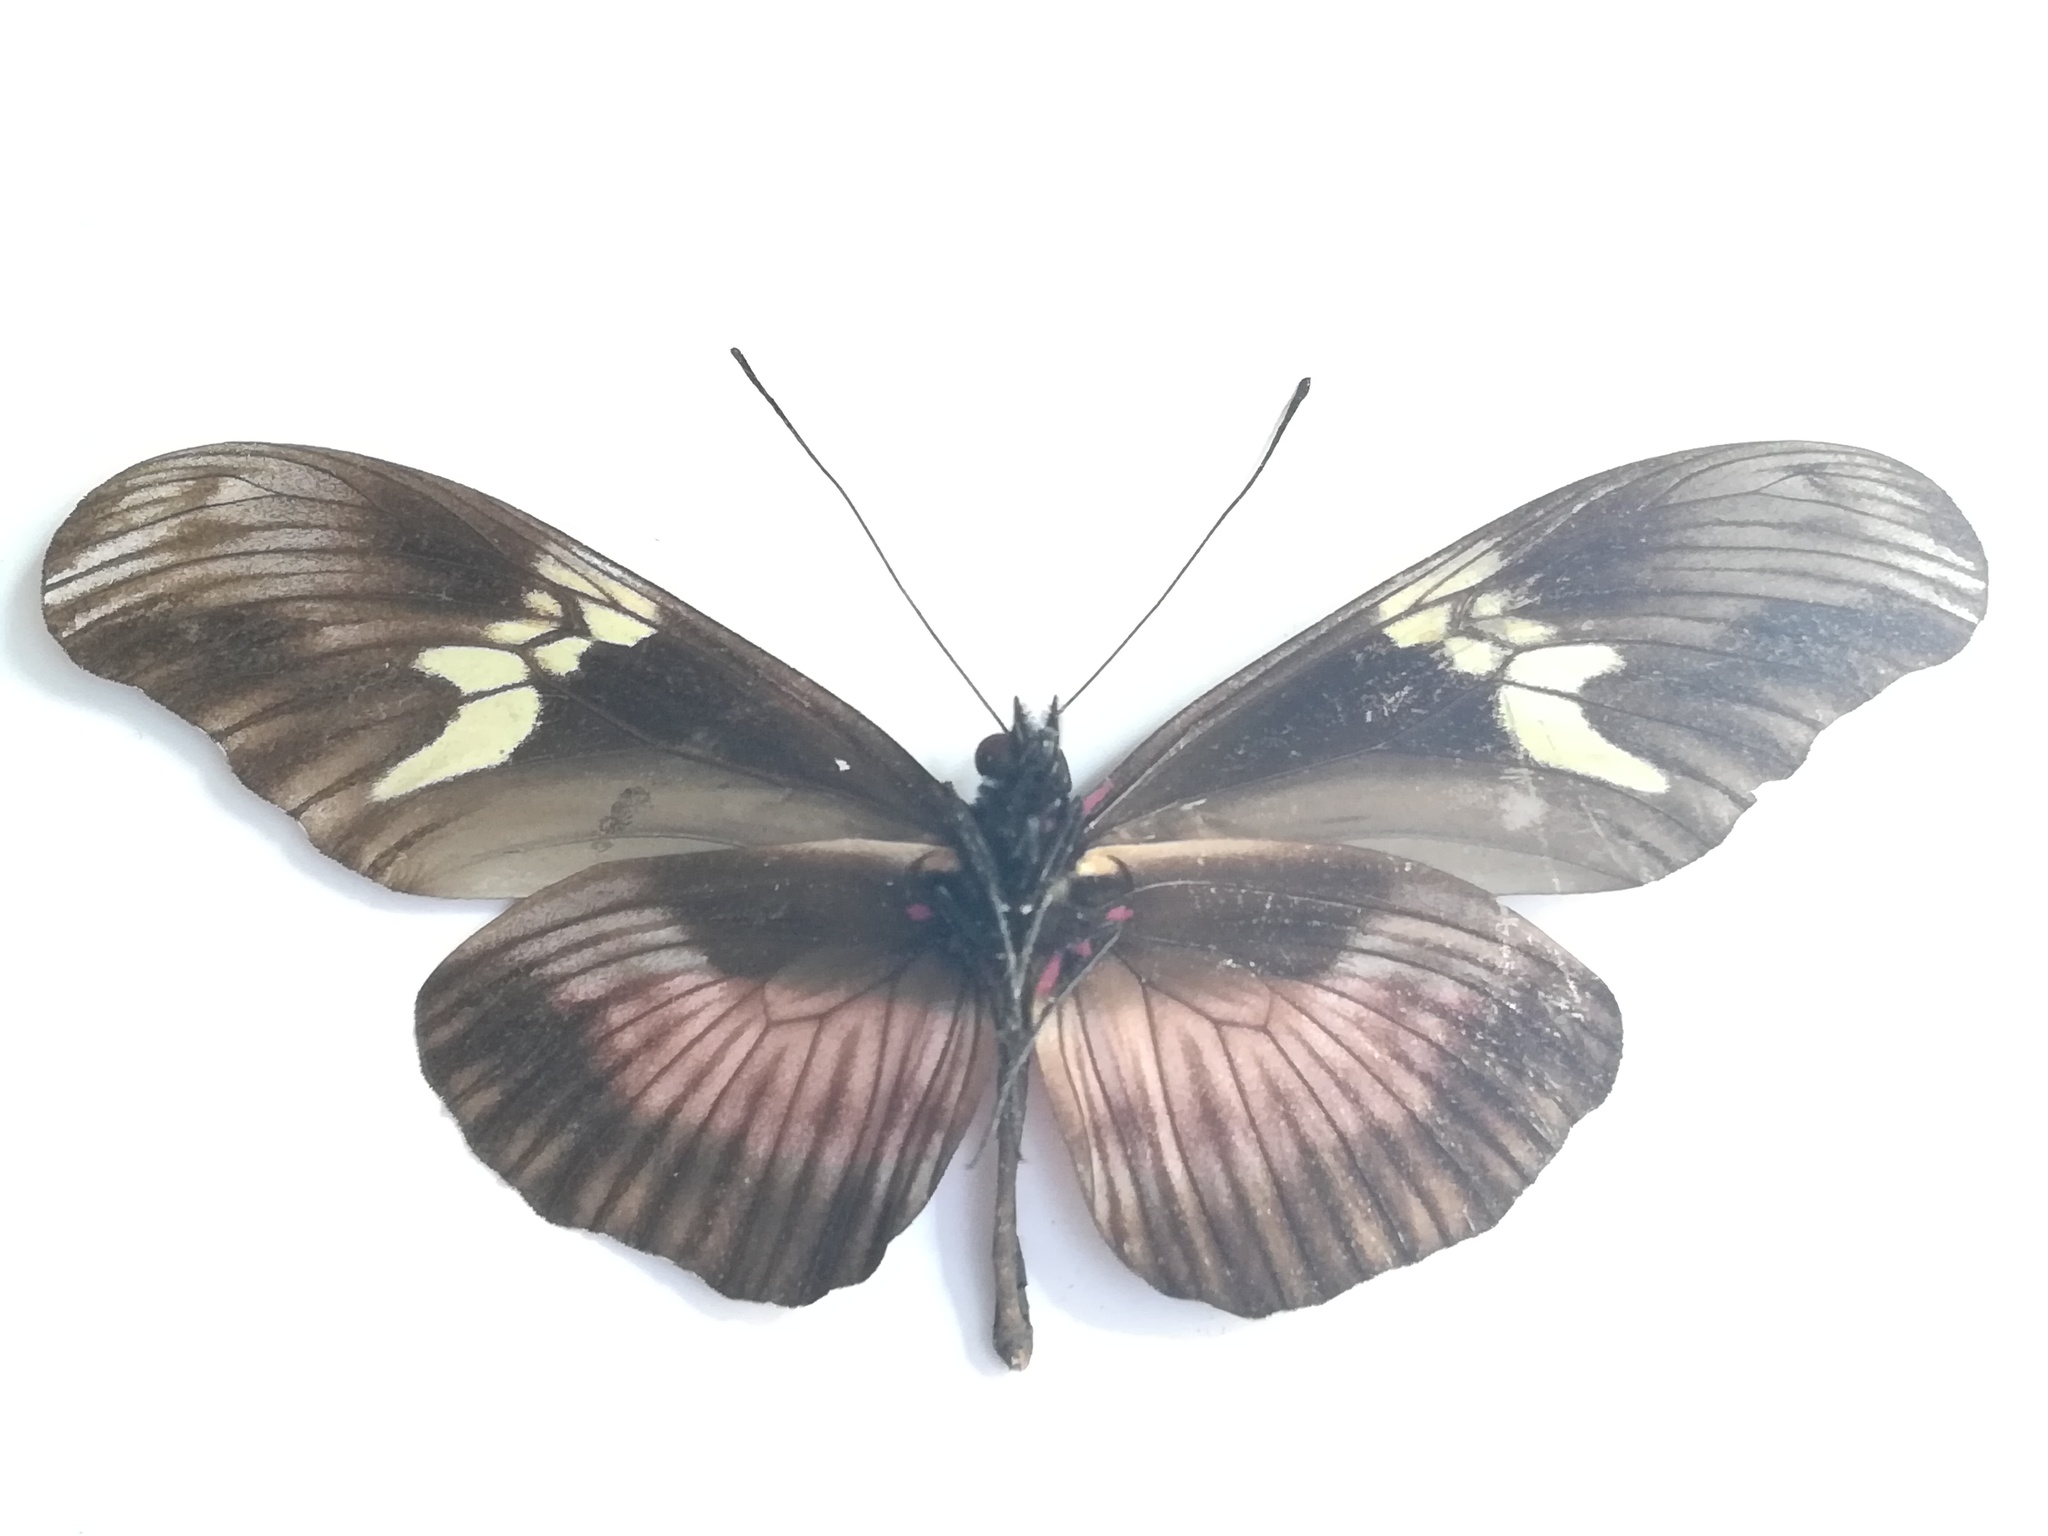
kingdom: Animalia
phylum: Arthropoda
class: Insecta
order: Lepidoptera
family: Nymphalidae
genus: Heliconius
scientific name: Heliconius hortense
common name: Mexican longwing
